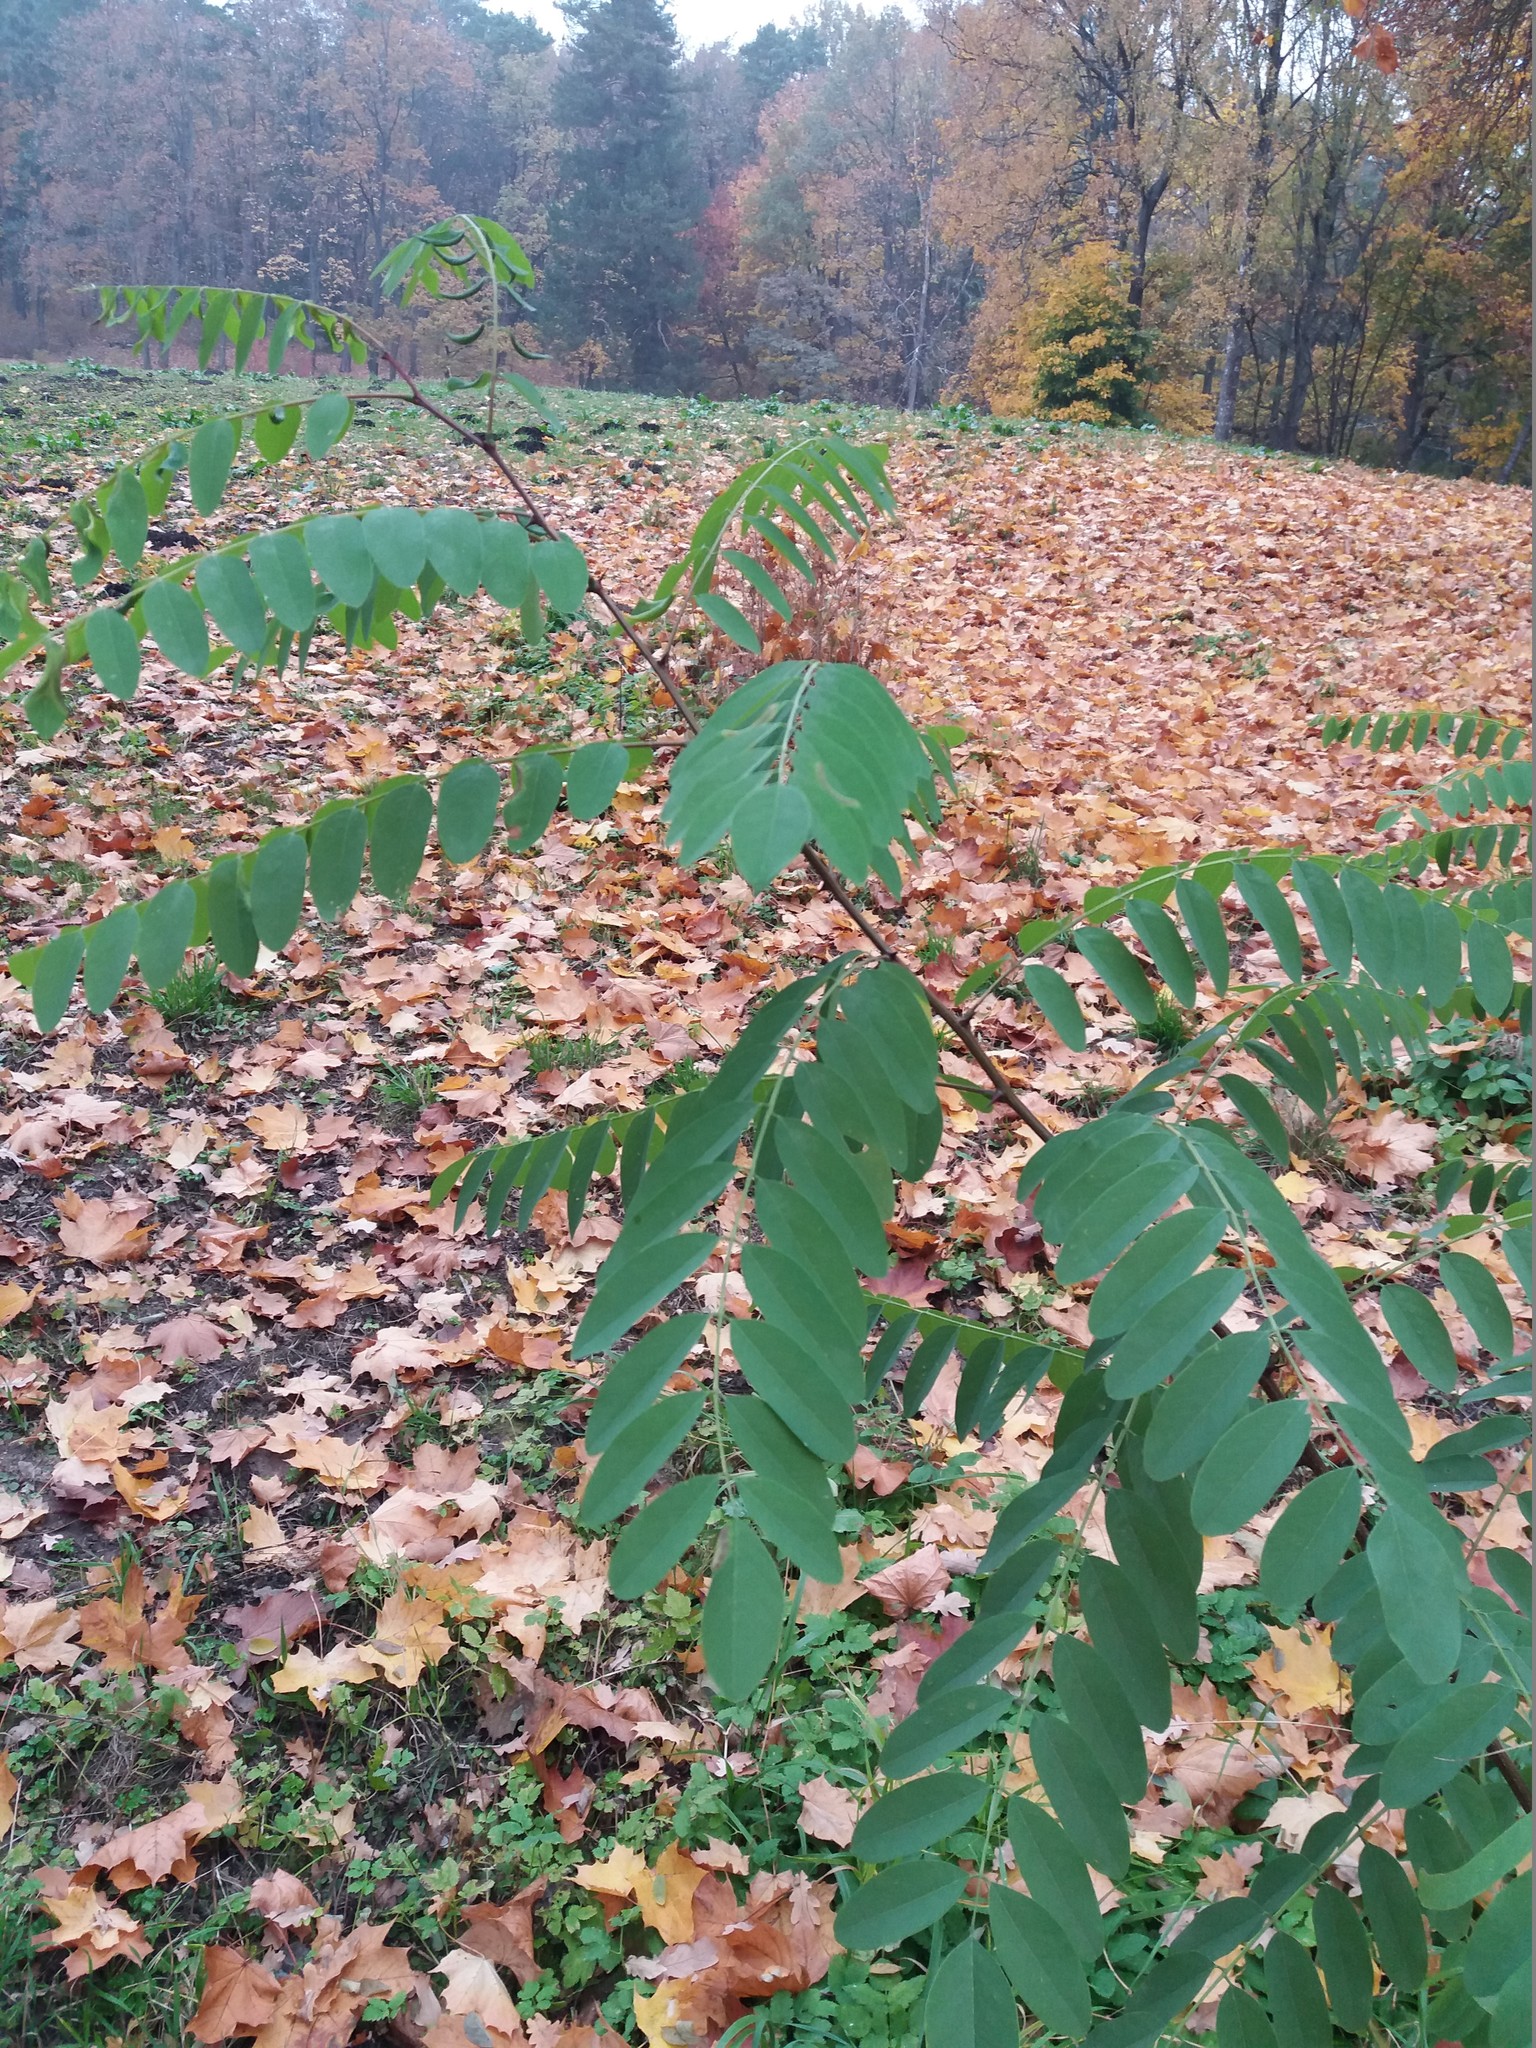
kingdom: Plantae
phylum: Tracheophyta
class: Magnoliopsida
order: Fabales
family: Fabaceae
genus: Robinia
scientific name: Robinia pseudoacacia
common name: Black locust
